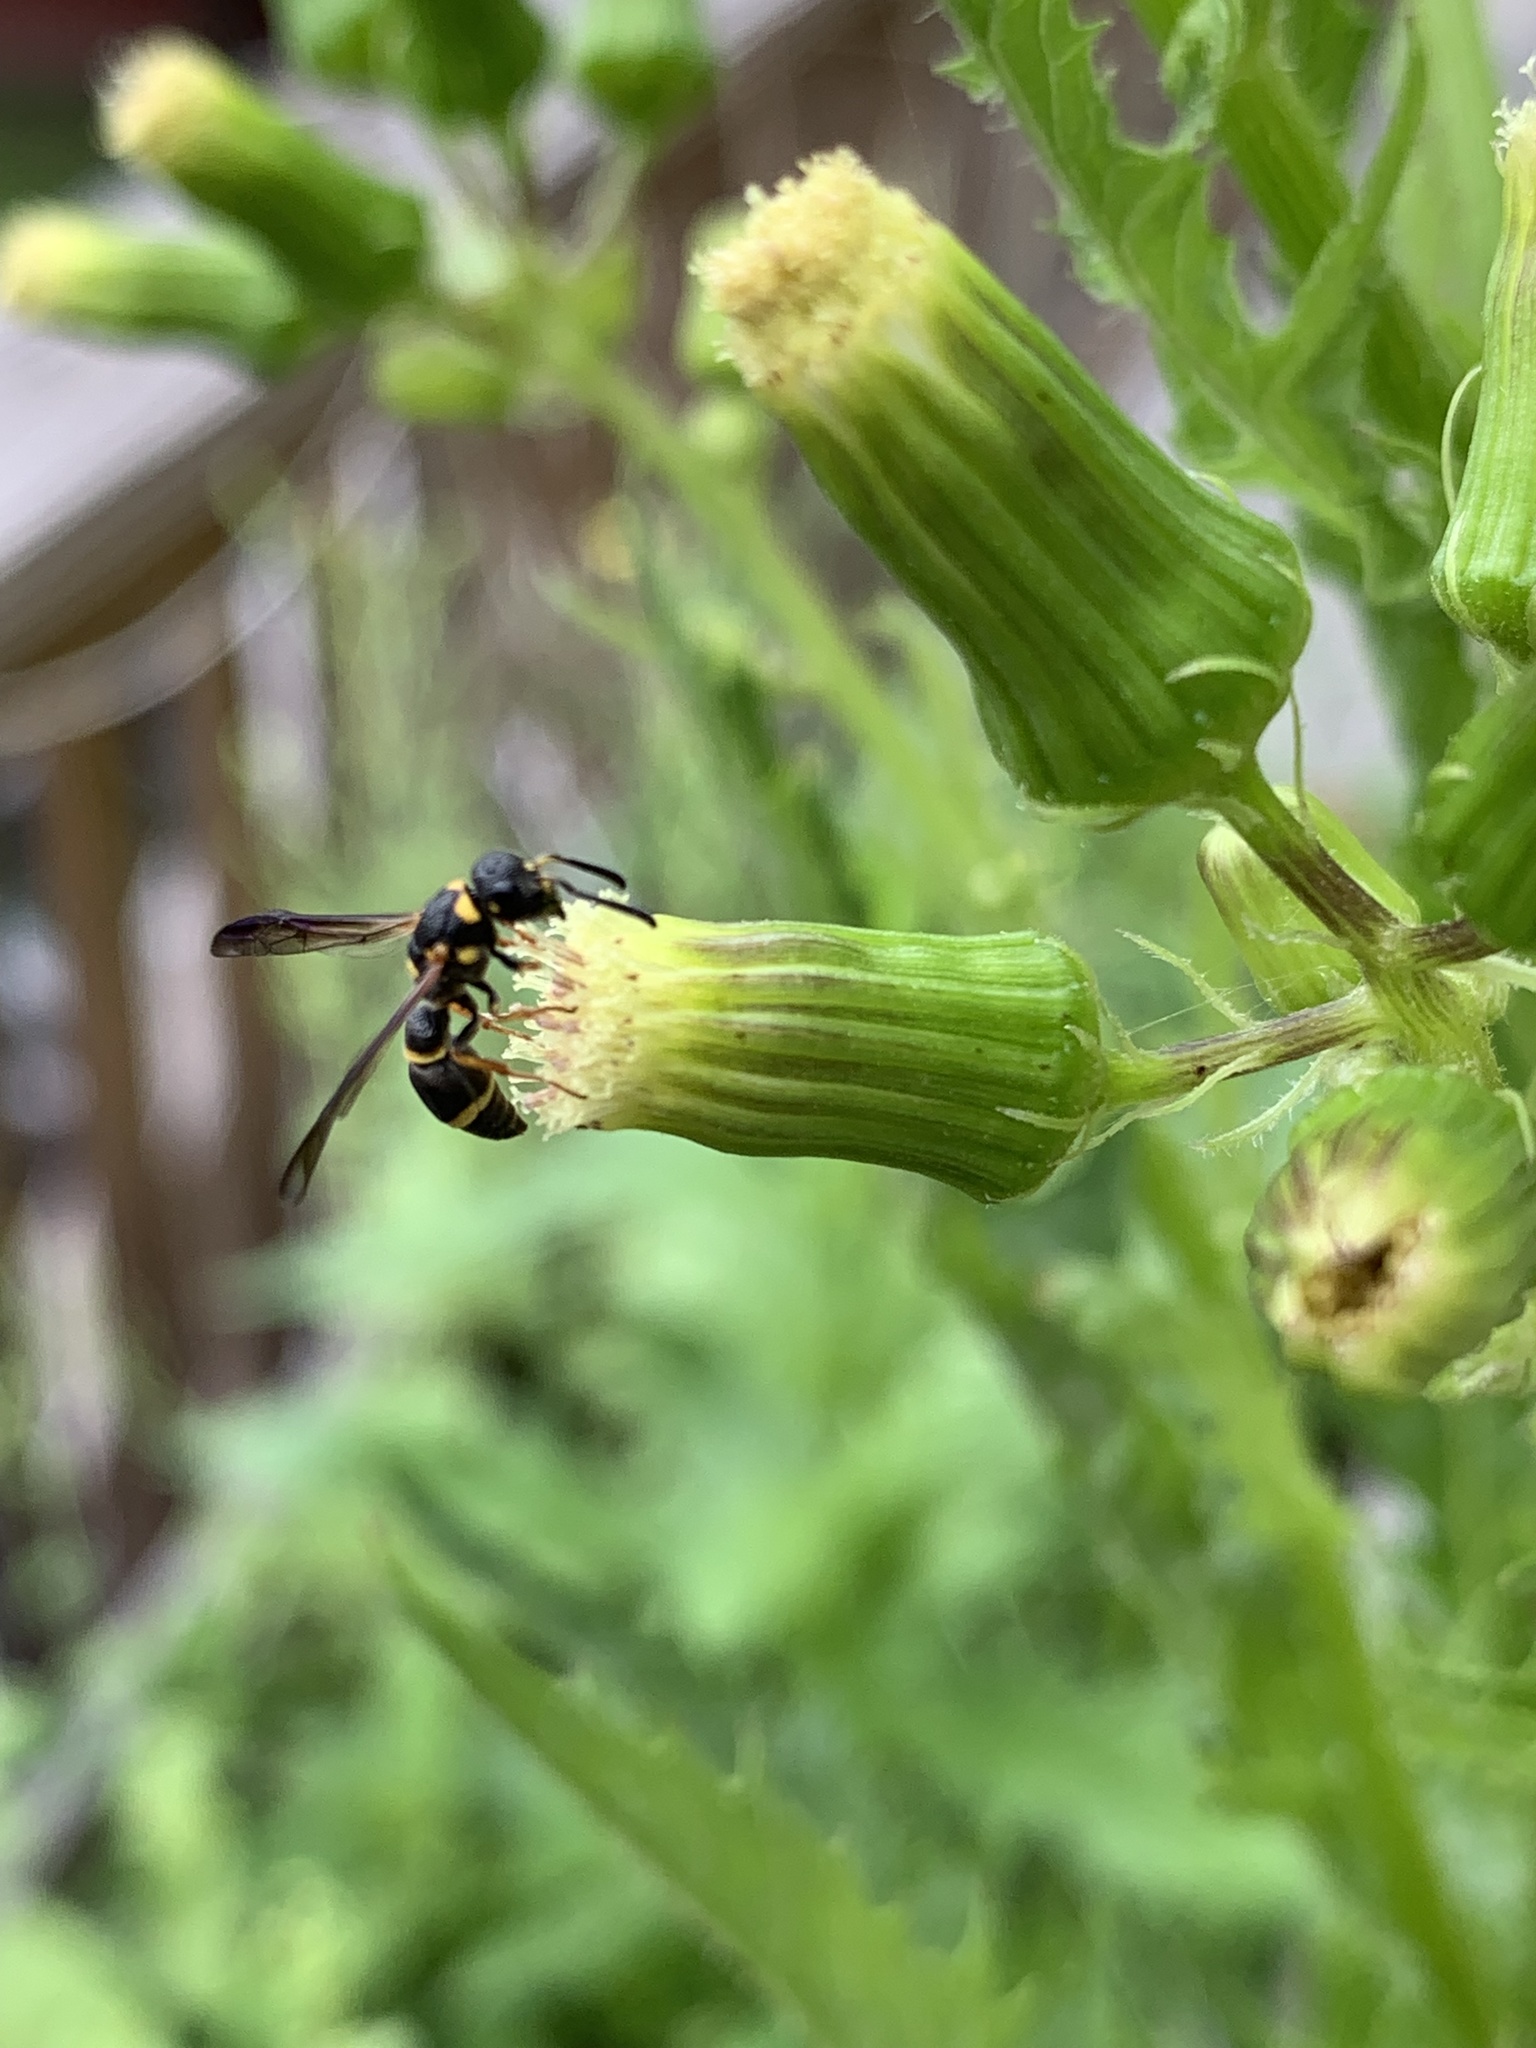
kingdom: Animalia
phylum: Arthropoda
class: Insecta
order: Hymenoptera
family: Eumenidae
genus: Parancistrocerus
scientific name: Parancistrocerus perennis
